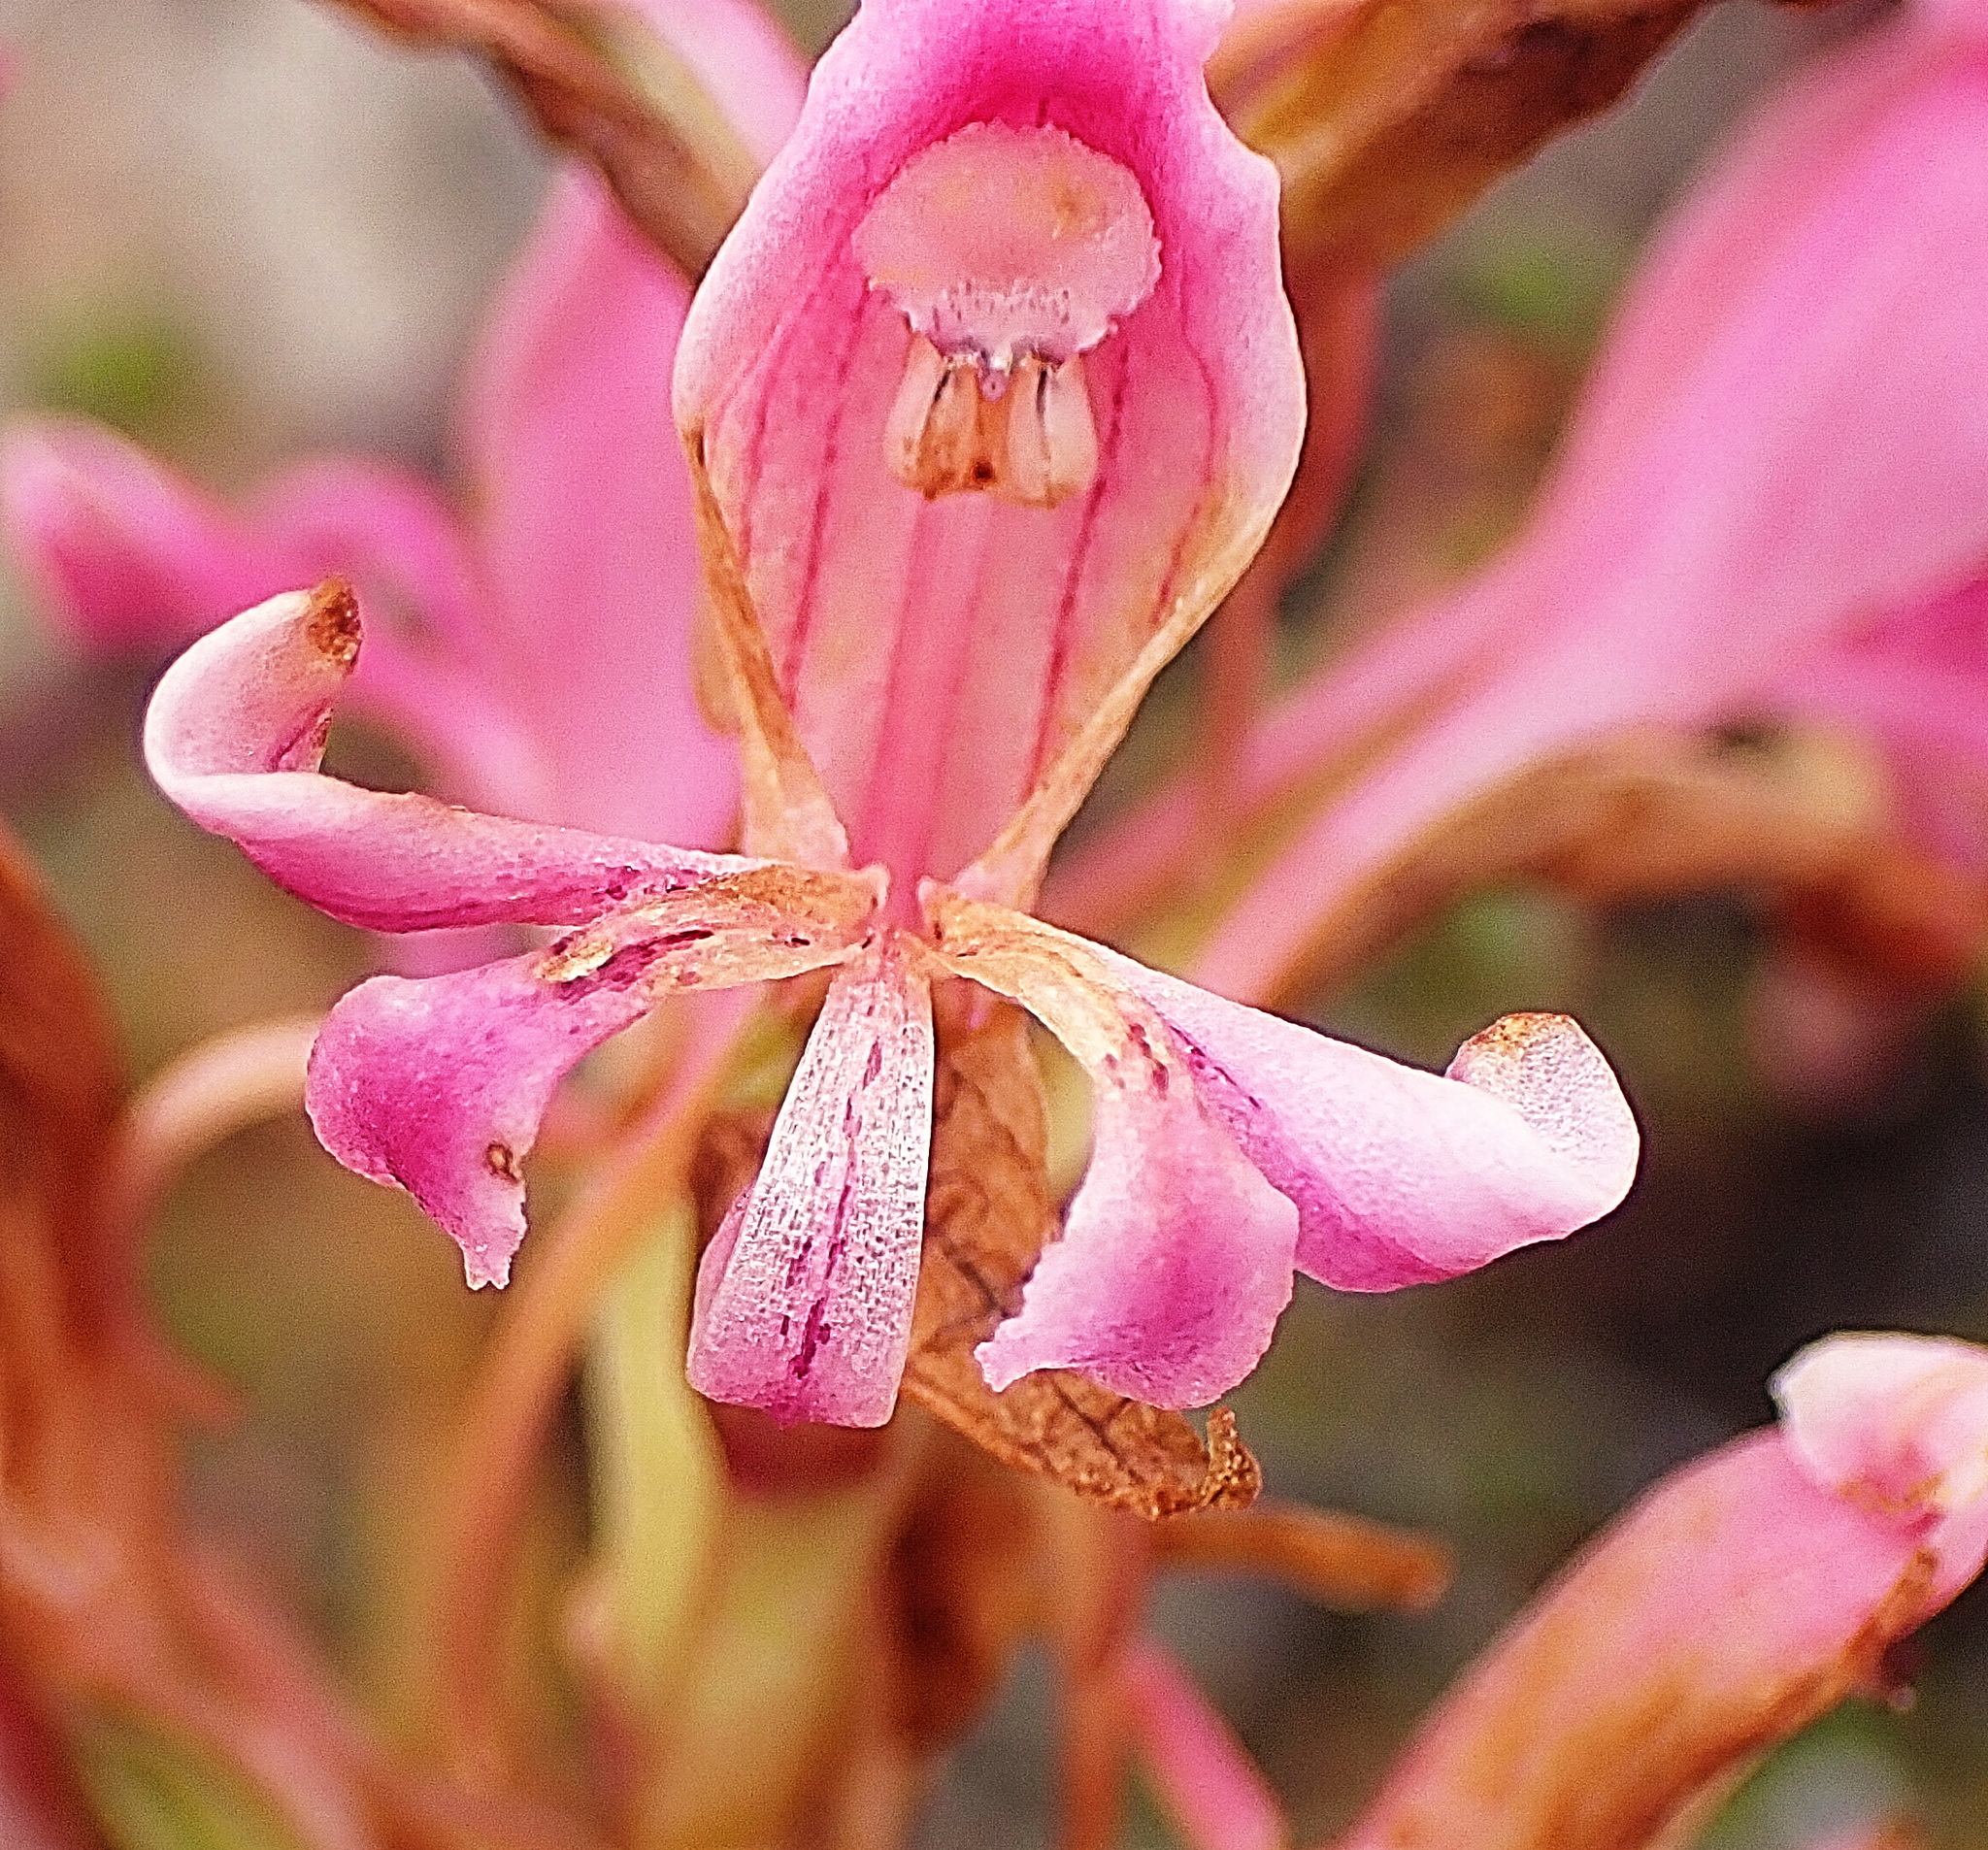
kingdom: Plantae
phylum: Tracheophyta
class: Liliopsida
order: Asparagales
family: Orchidaceae
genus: Satyrium
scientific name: Satyrium erectum
